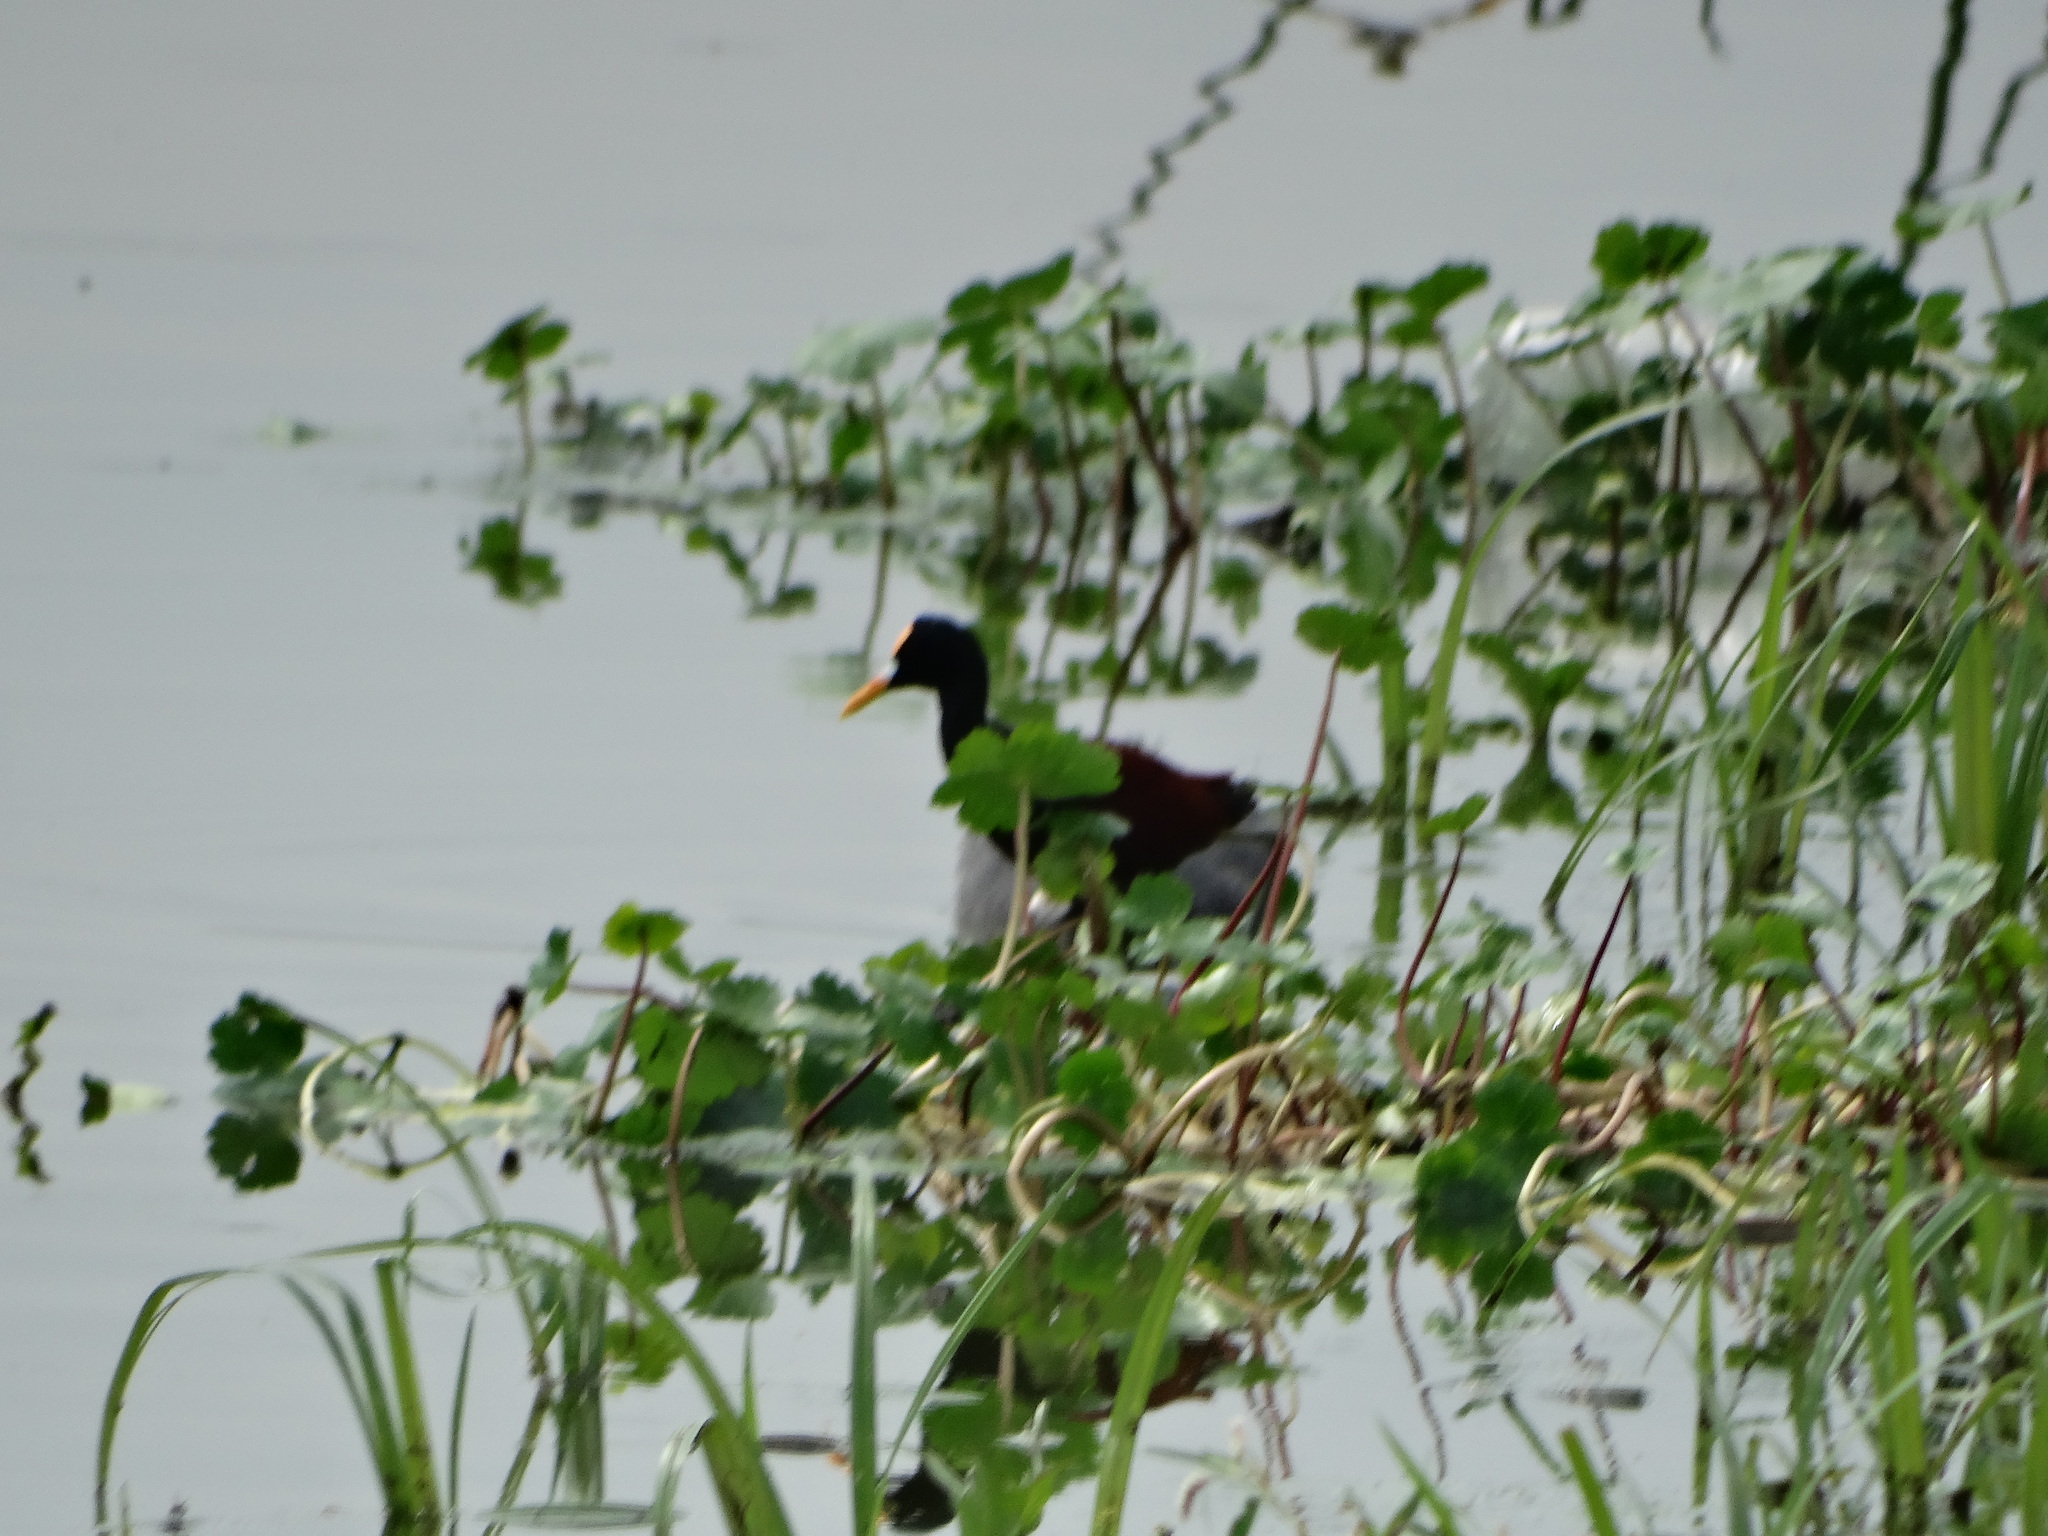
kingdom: Animalia
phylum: Chordata
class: Aves
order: Charadriiformes
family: Jacanidae
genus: Jacana
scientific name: Jacana spinosa
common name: Northern jacana
